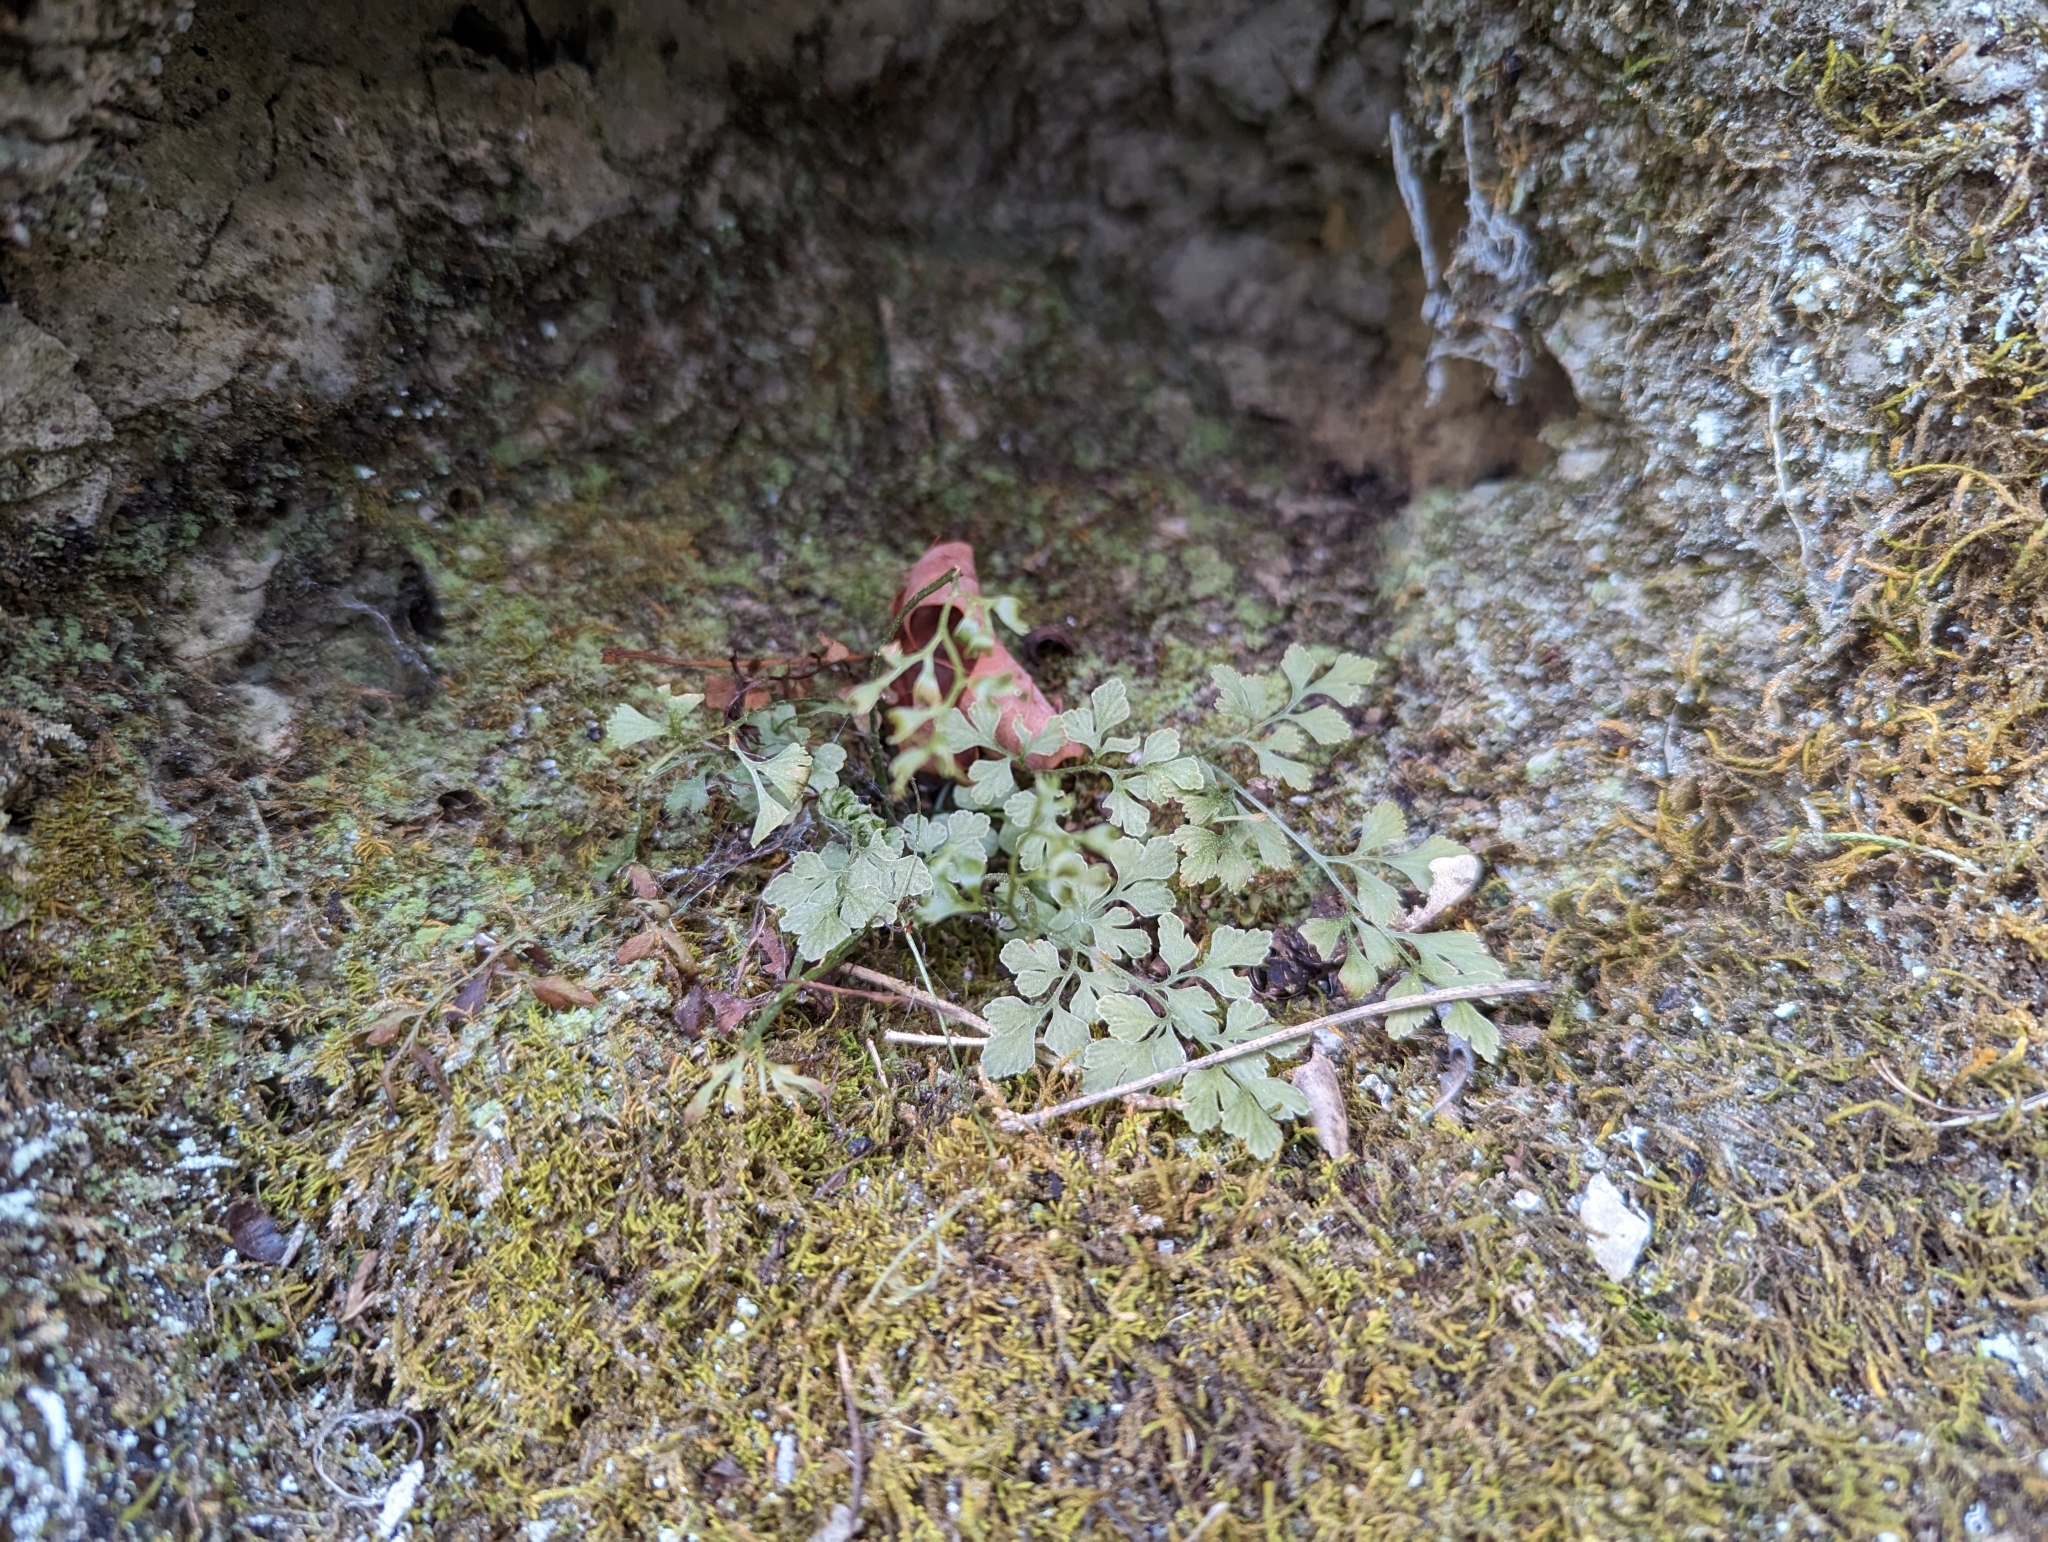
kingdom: Plantae
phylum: Tracheophyta
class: Polypodiopsida
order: Polypodiales
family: Aspleniaceae
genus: Asplenium
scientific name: Asplenium ruta-muraria
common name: Wall-rue
